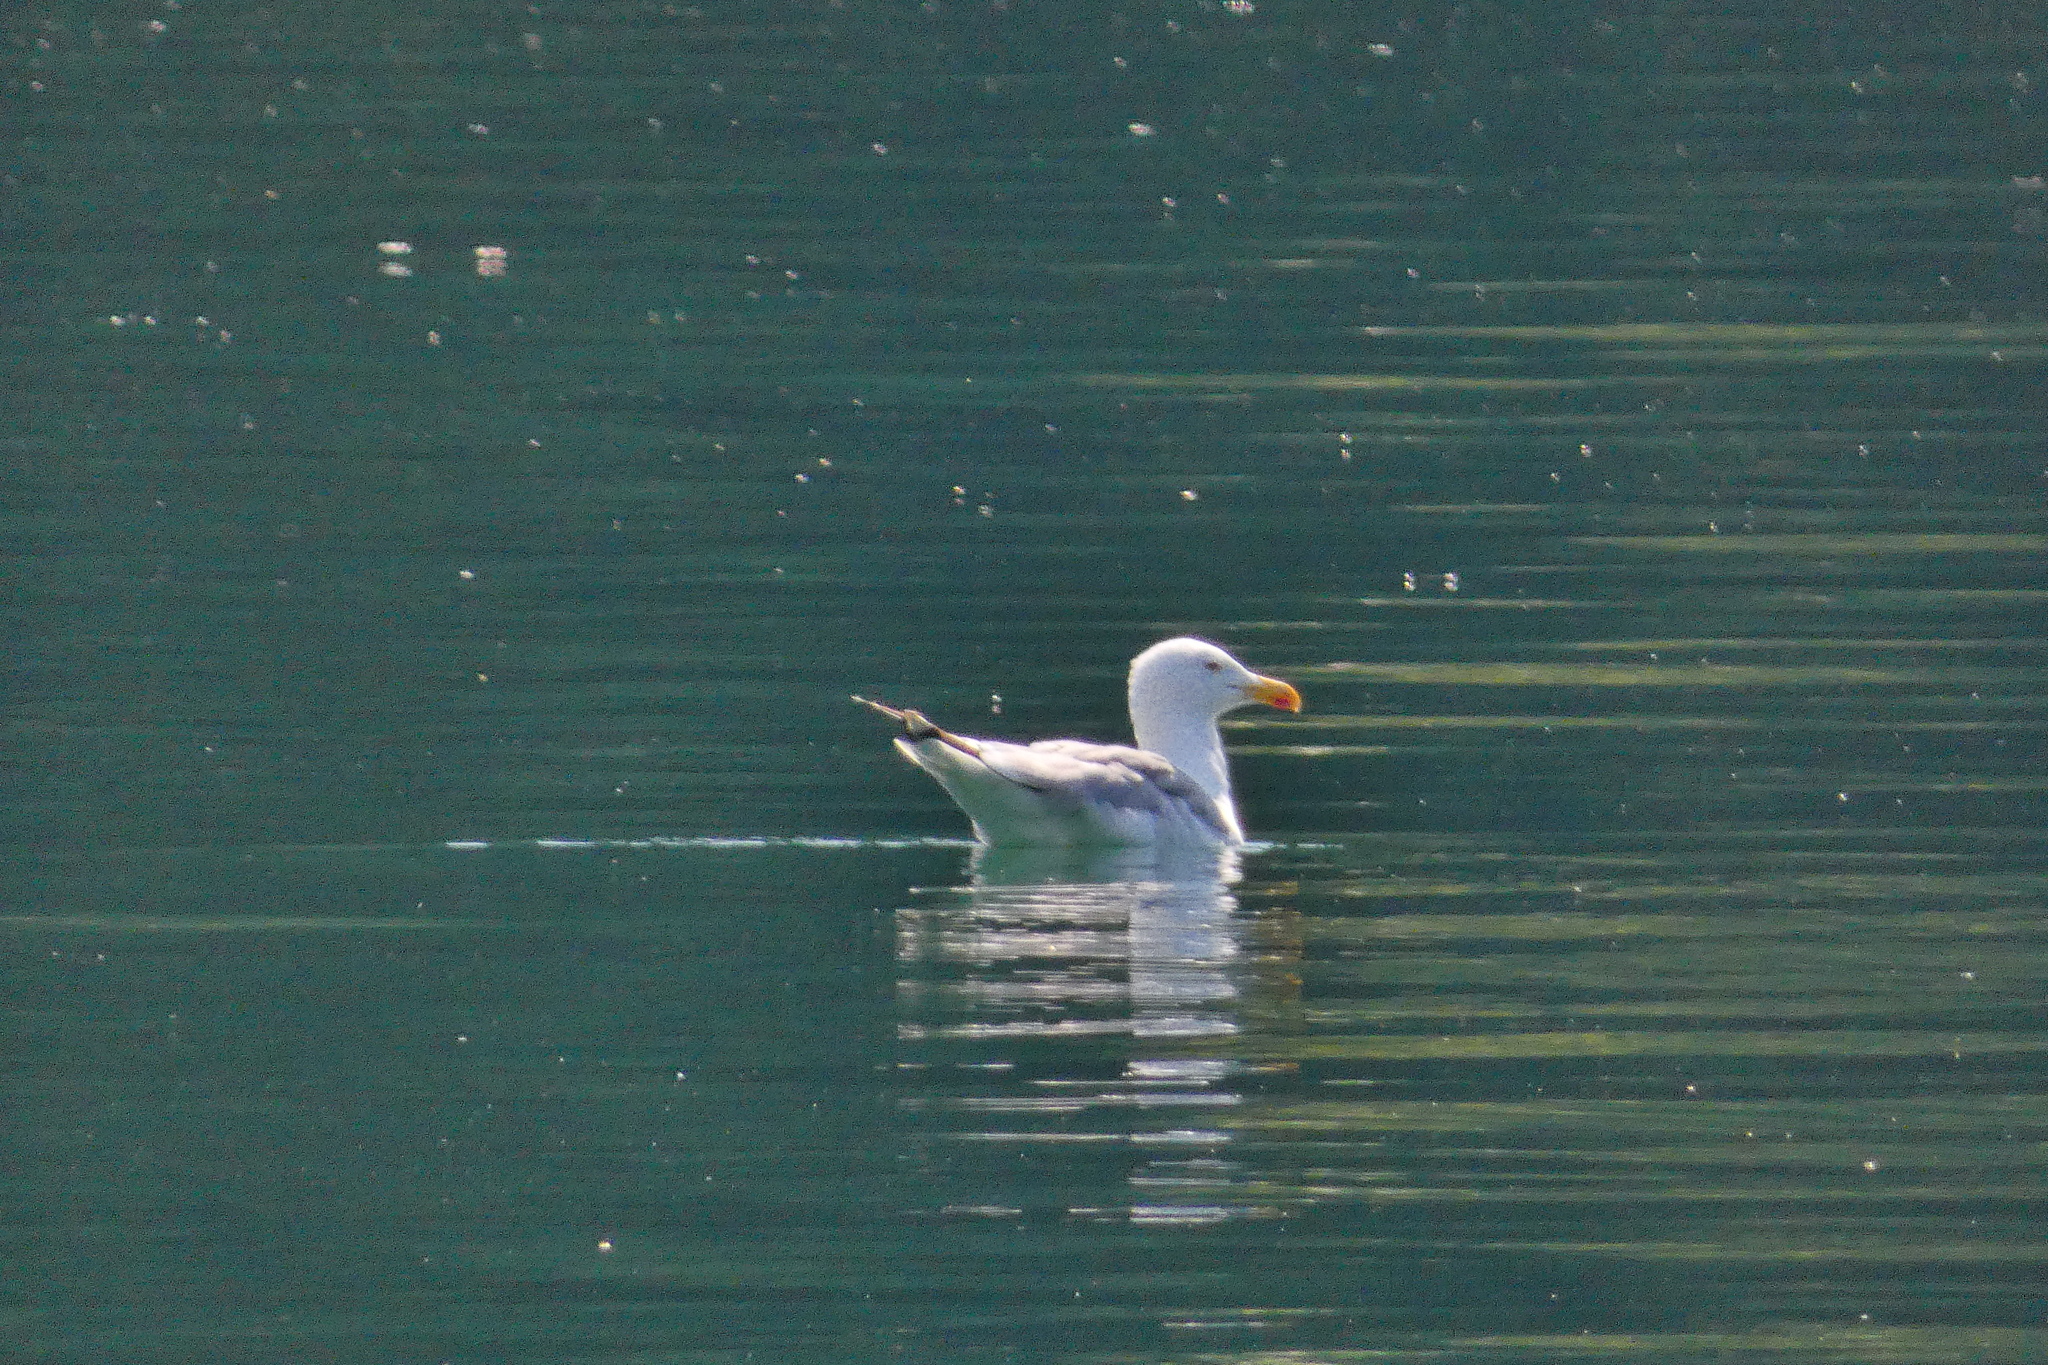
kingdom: Animalia
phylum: Chordata
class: Aves
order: Charadriiformes
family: Laridae
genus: Larus
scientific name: Larus michahellis
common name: Yellow-legged gull
